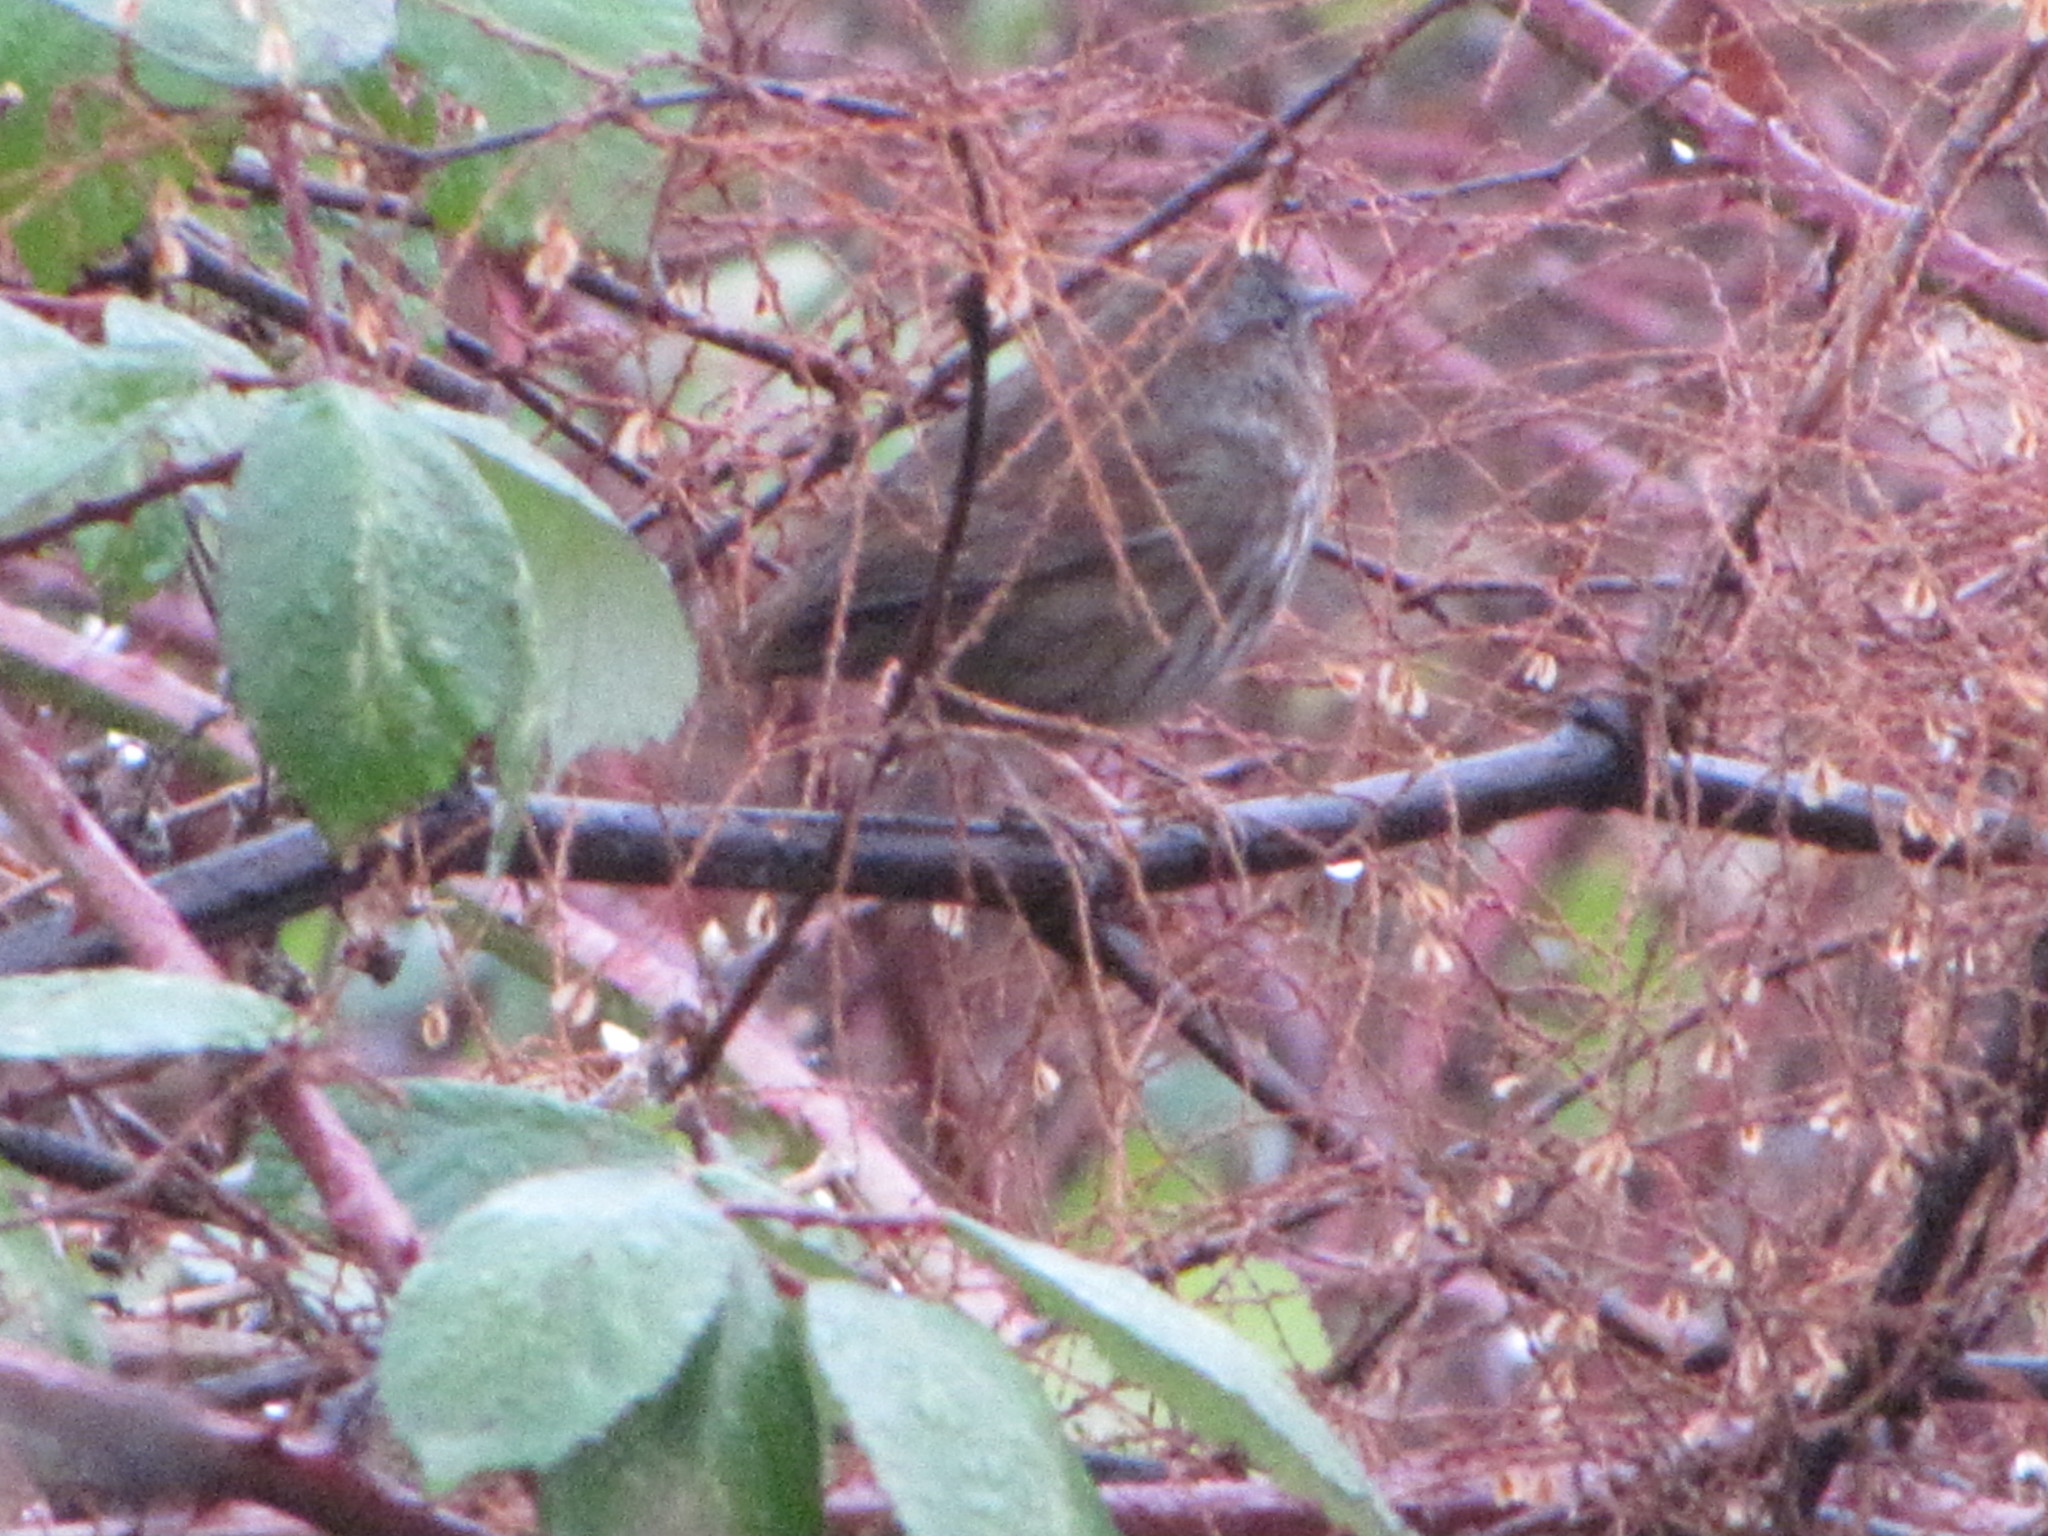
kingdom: Animalia
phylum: Chordata
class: Aves
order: Passeriformes
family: Passerellidae
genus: Melospiza
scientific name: Melospiza melodia
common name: Song sparrow
